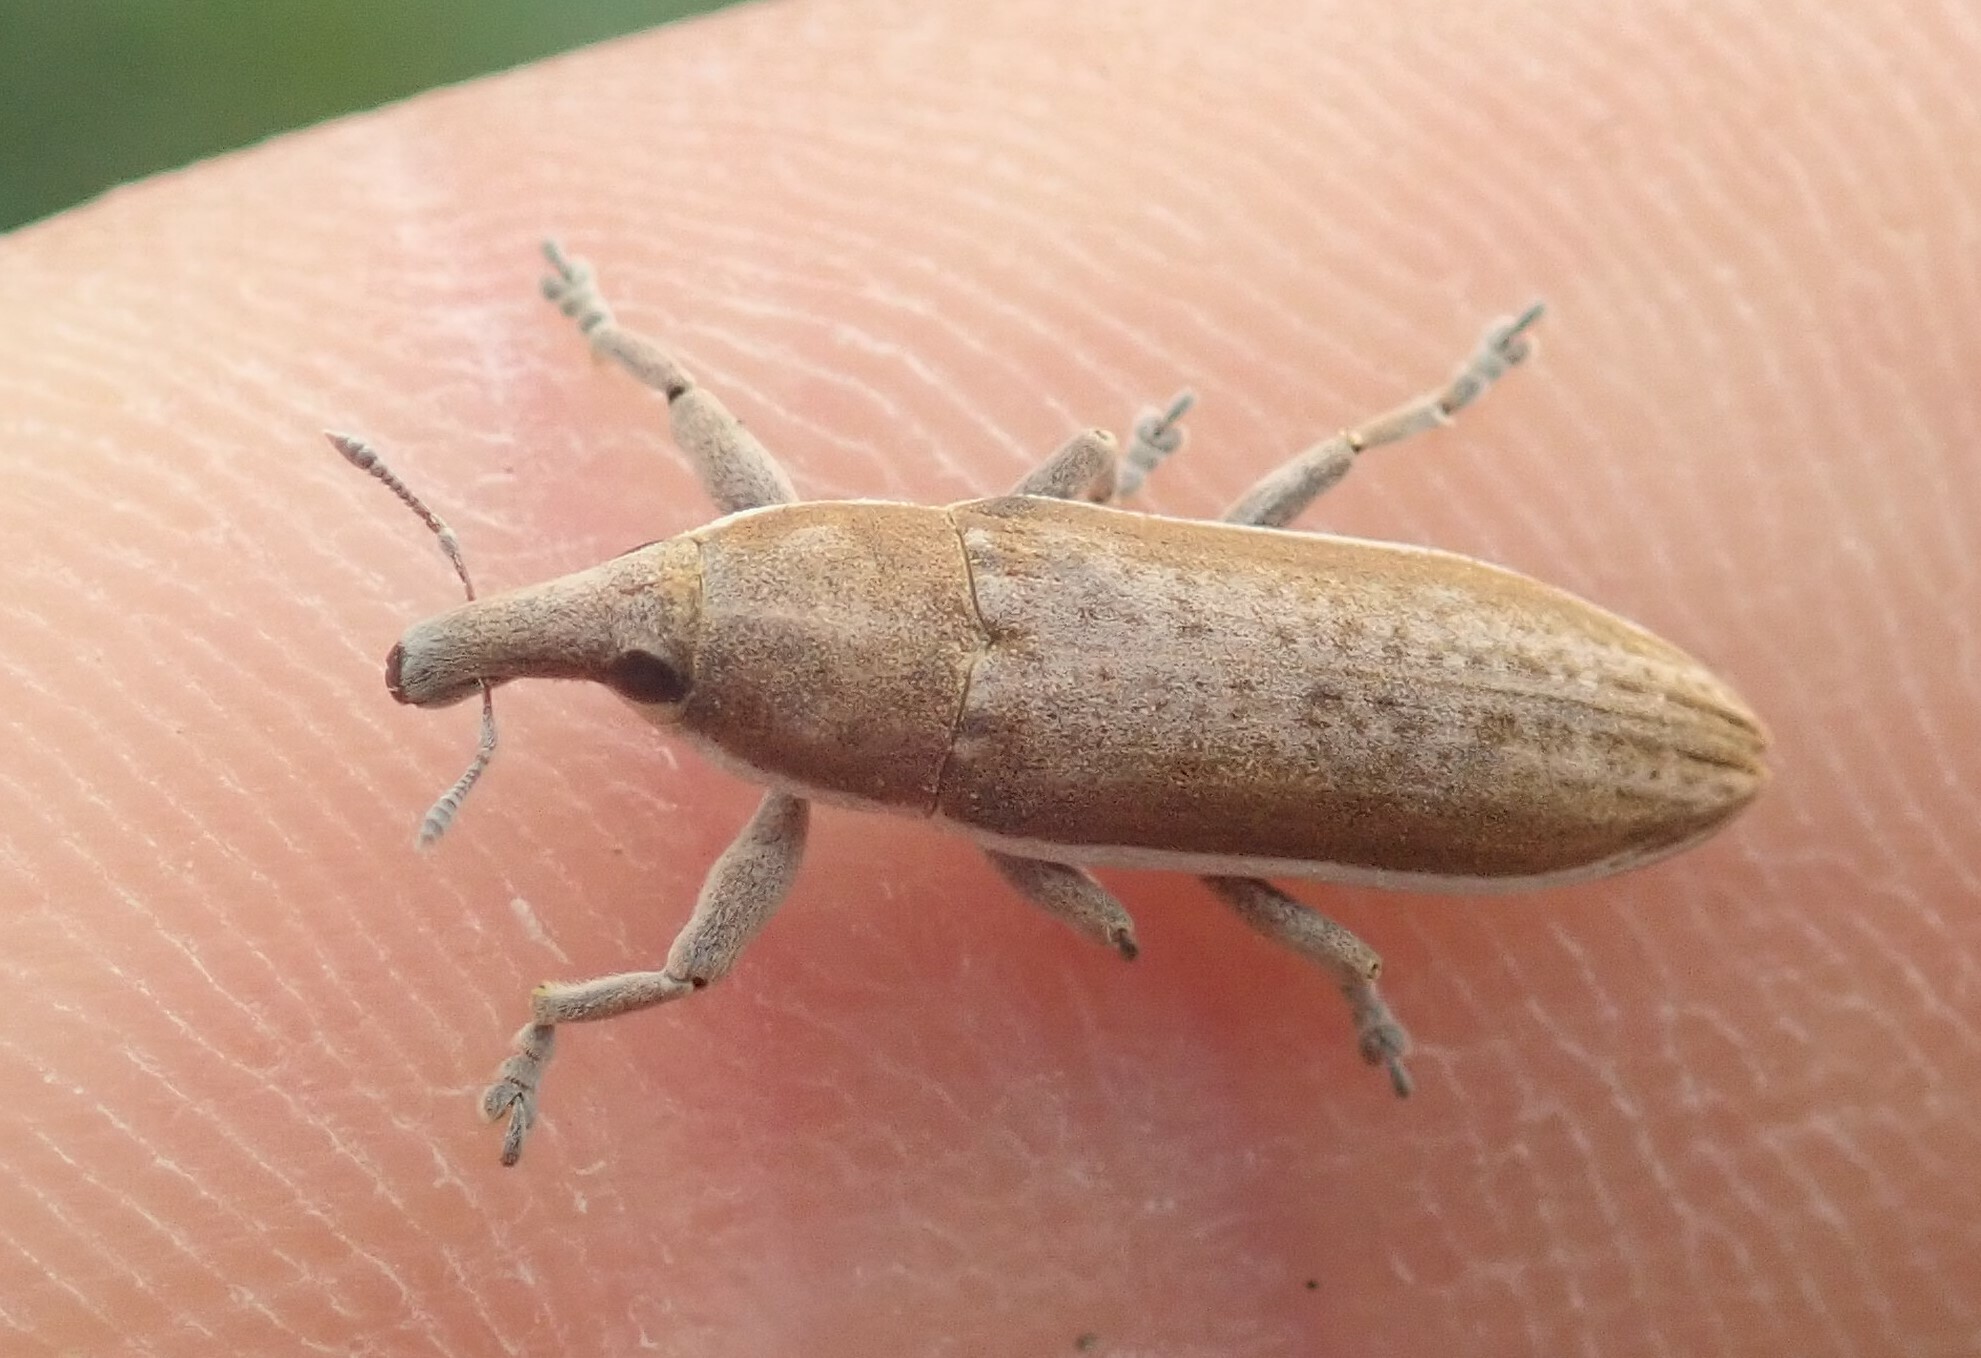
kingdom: Animalia
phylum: Arthropoda
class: Insecta
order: Coleoptera
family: Curculionidae
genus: Lixus
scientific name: Lixus juncii
